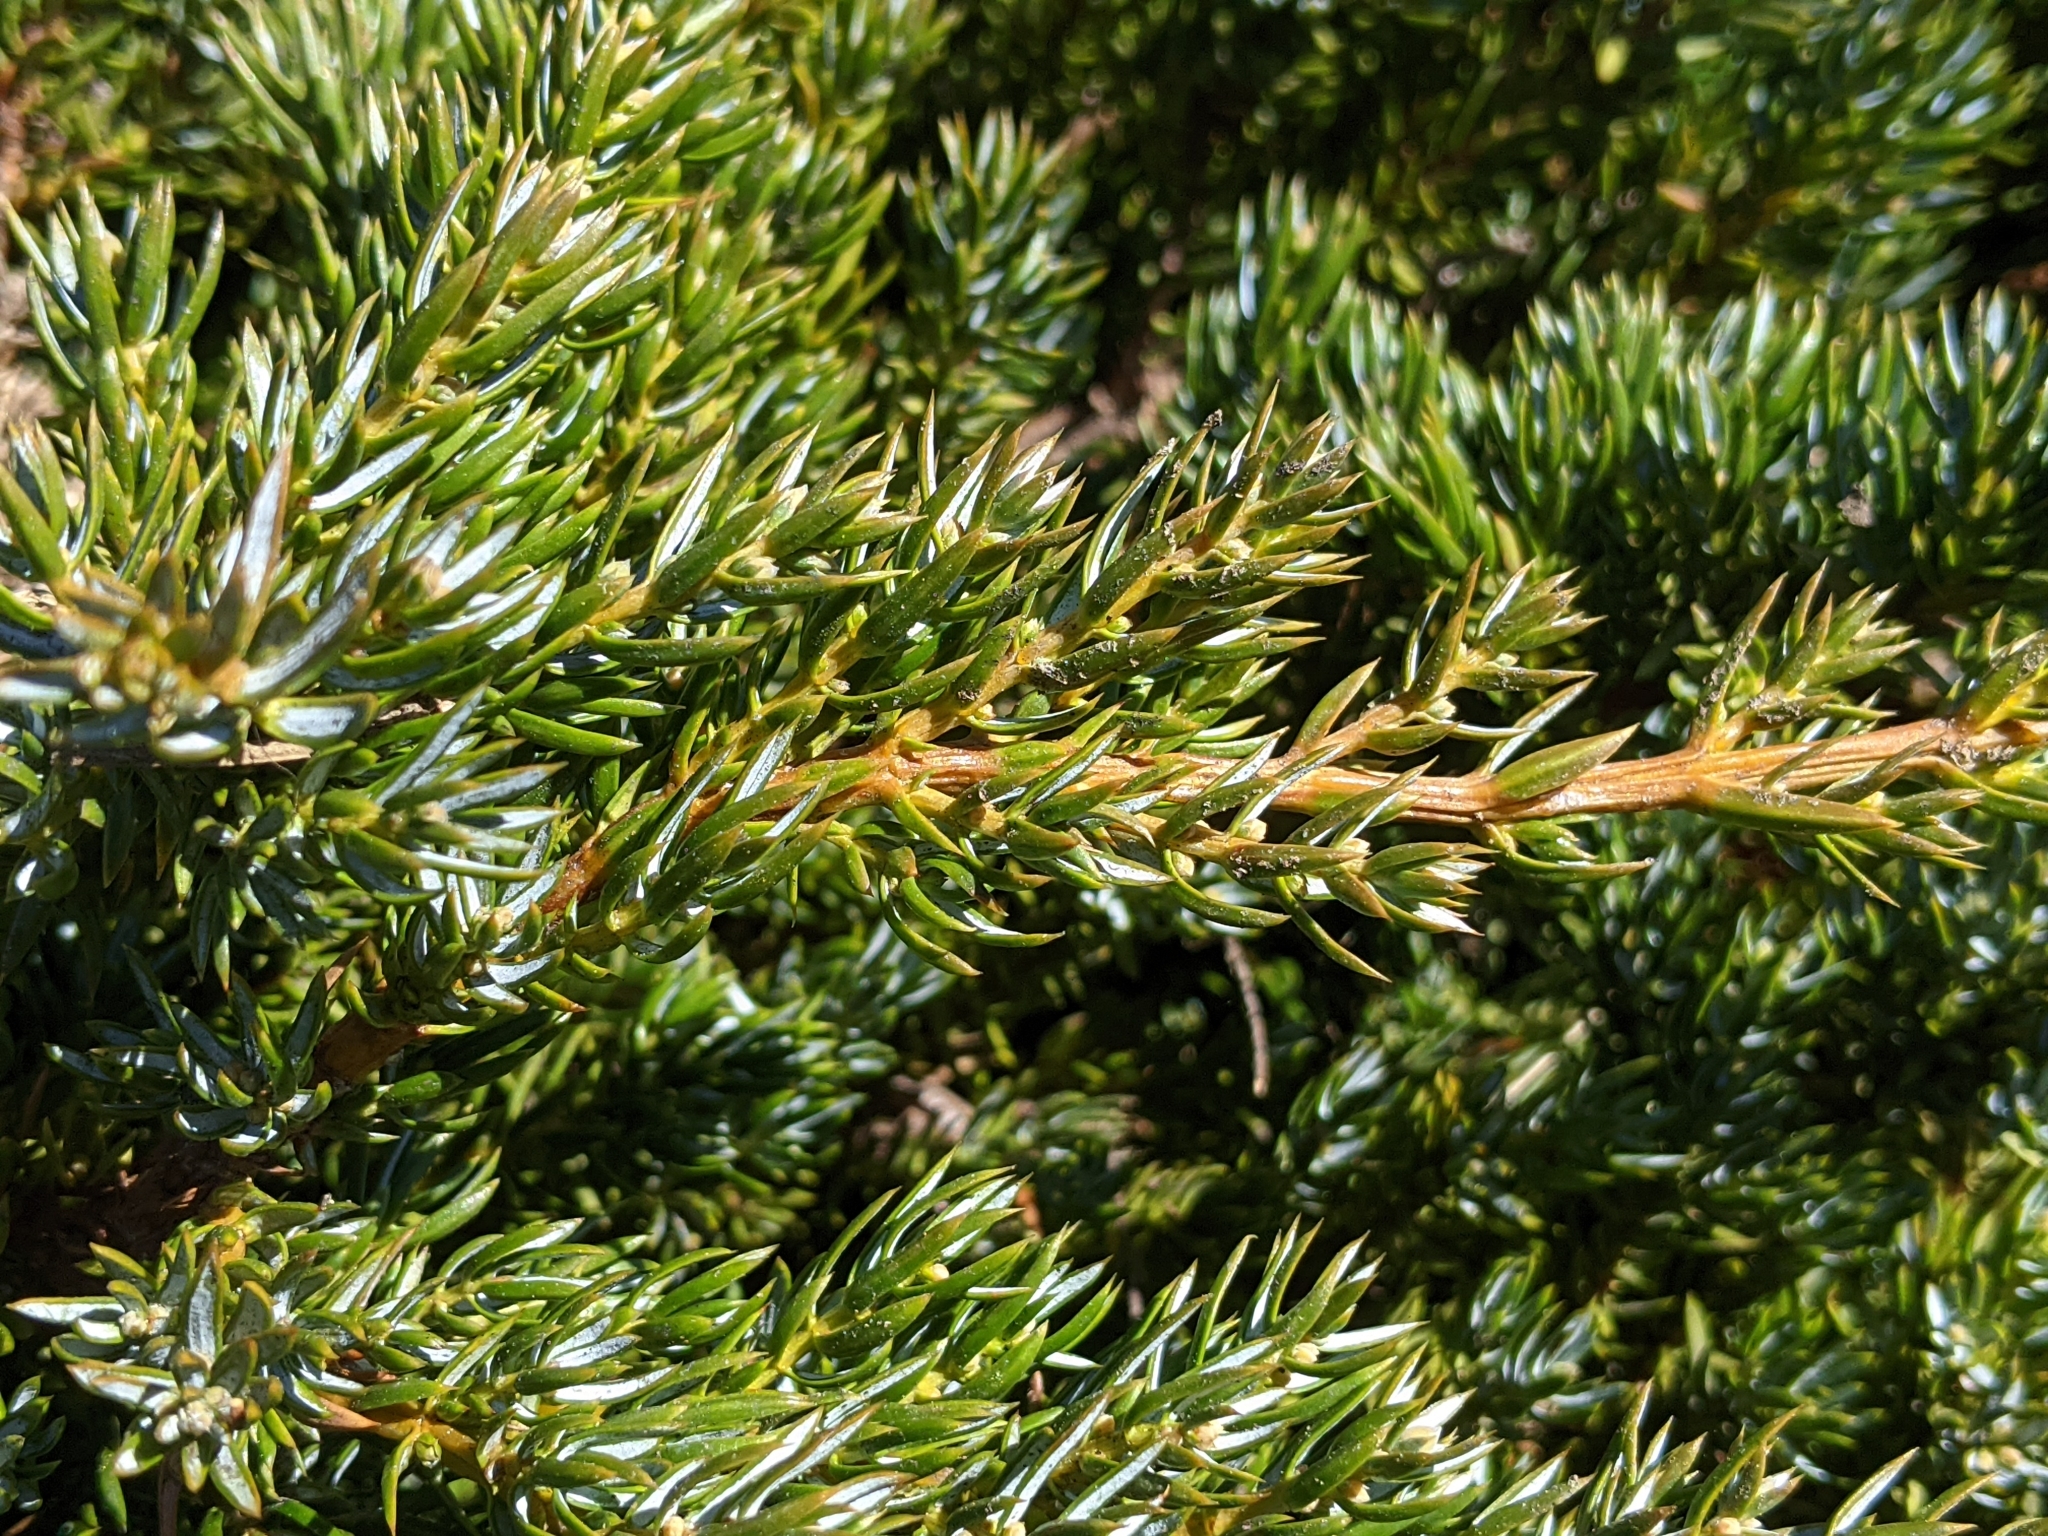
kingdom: Plantae
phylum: Tracheophyta
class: Pinopsida
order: Pinales
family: Cupressaceae
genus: Juniperus
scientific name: Juniperus communis
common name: Common juniper
